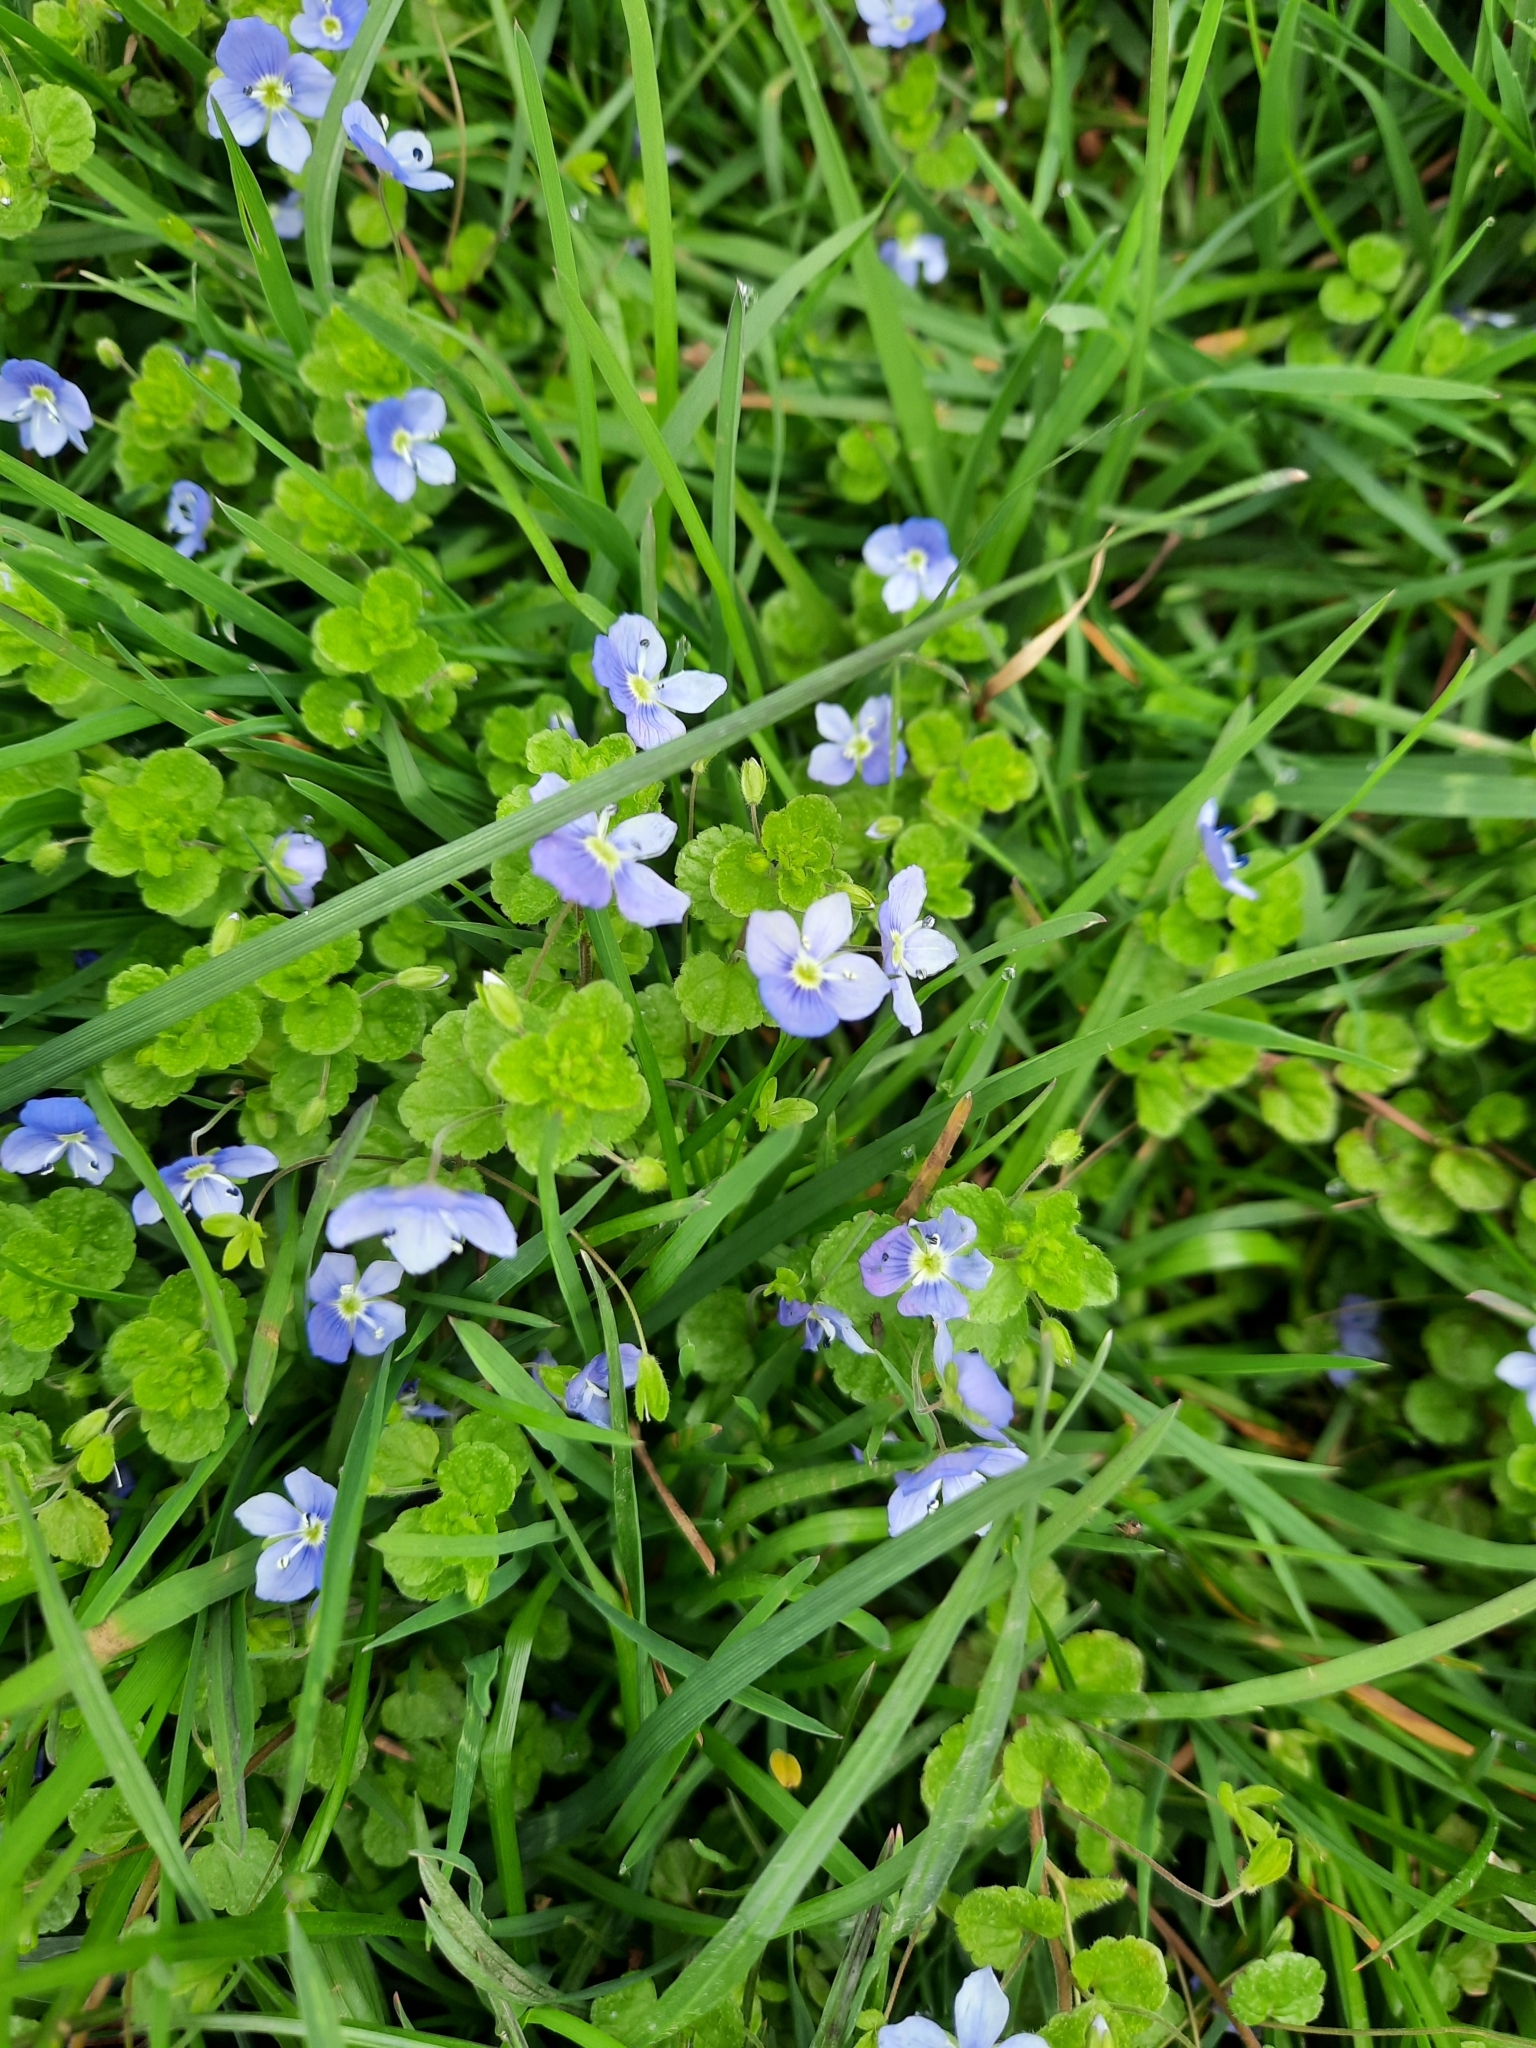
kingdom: Plantae
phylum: Tracheophyta
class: Magnoliopsida
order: Lamiales
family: Plantaginaceae
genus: Veronica
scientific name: Veronica filiformis
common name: Slender speedwell
